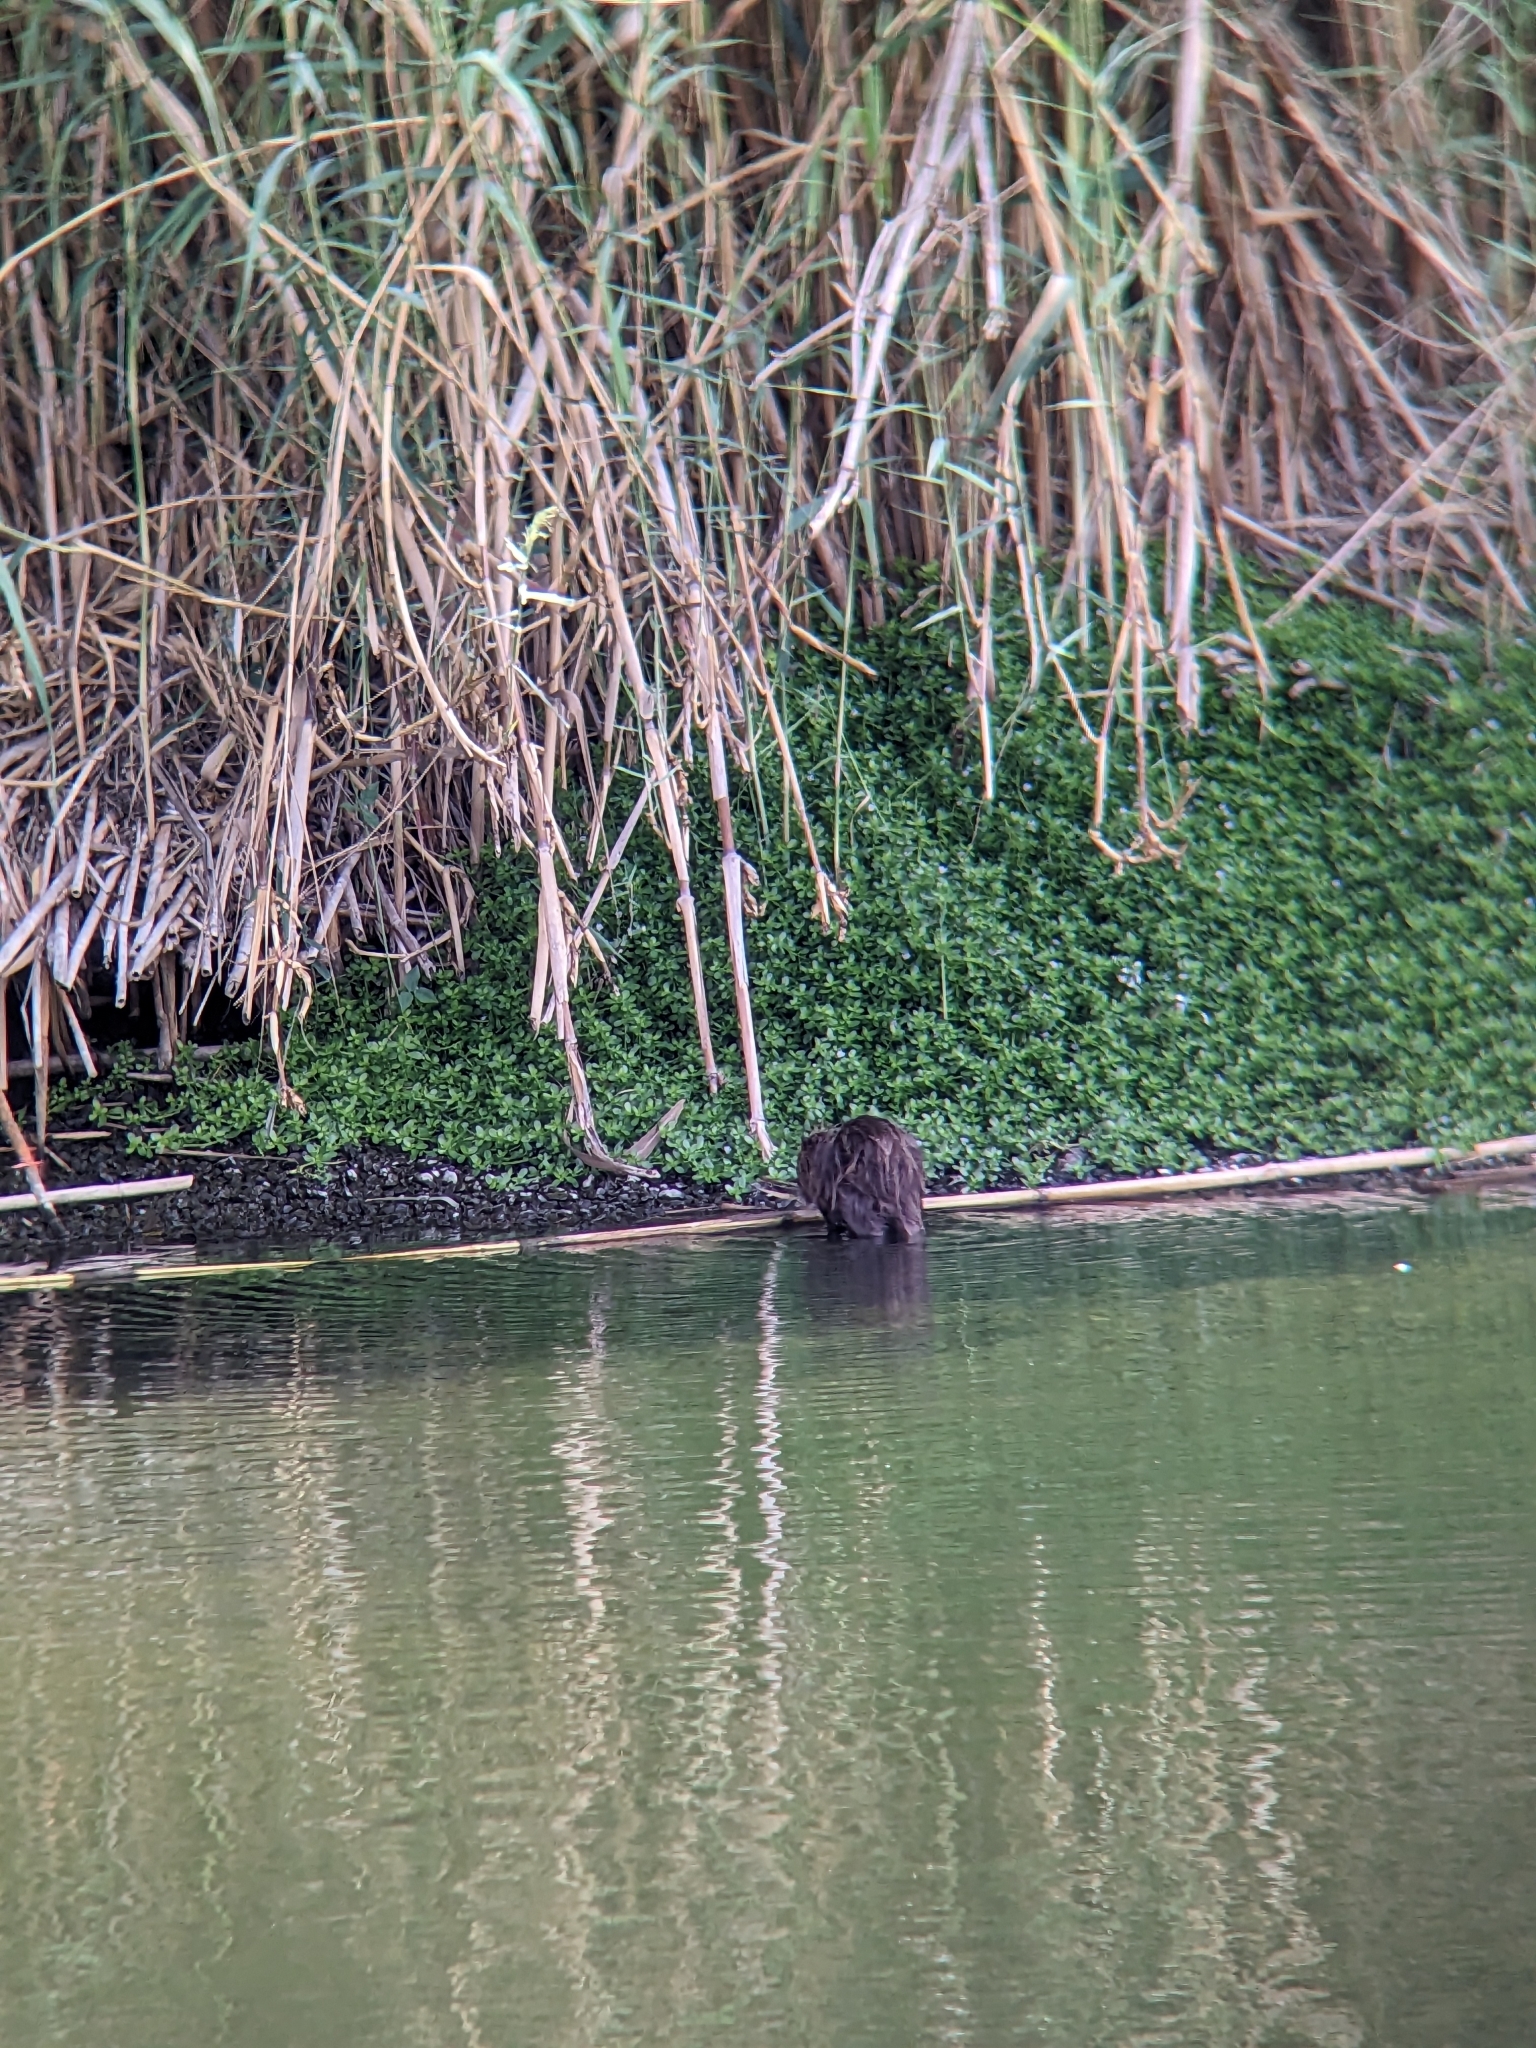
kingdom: Animalia
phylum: Chordata
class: Mammalia
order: Rodentia
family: Myocastoridae
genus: Myocastor
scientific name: Myocastor coypus
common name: Coypu
